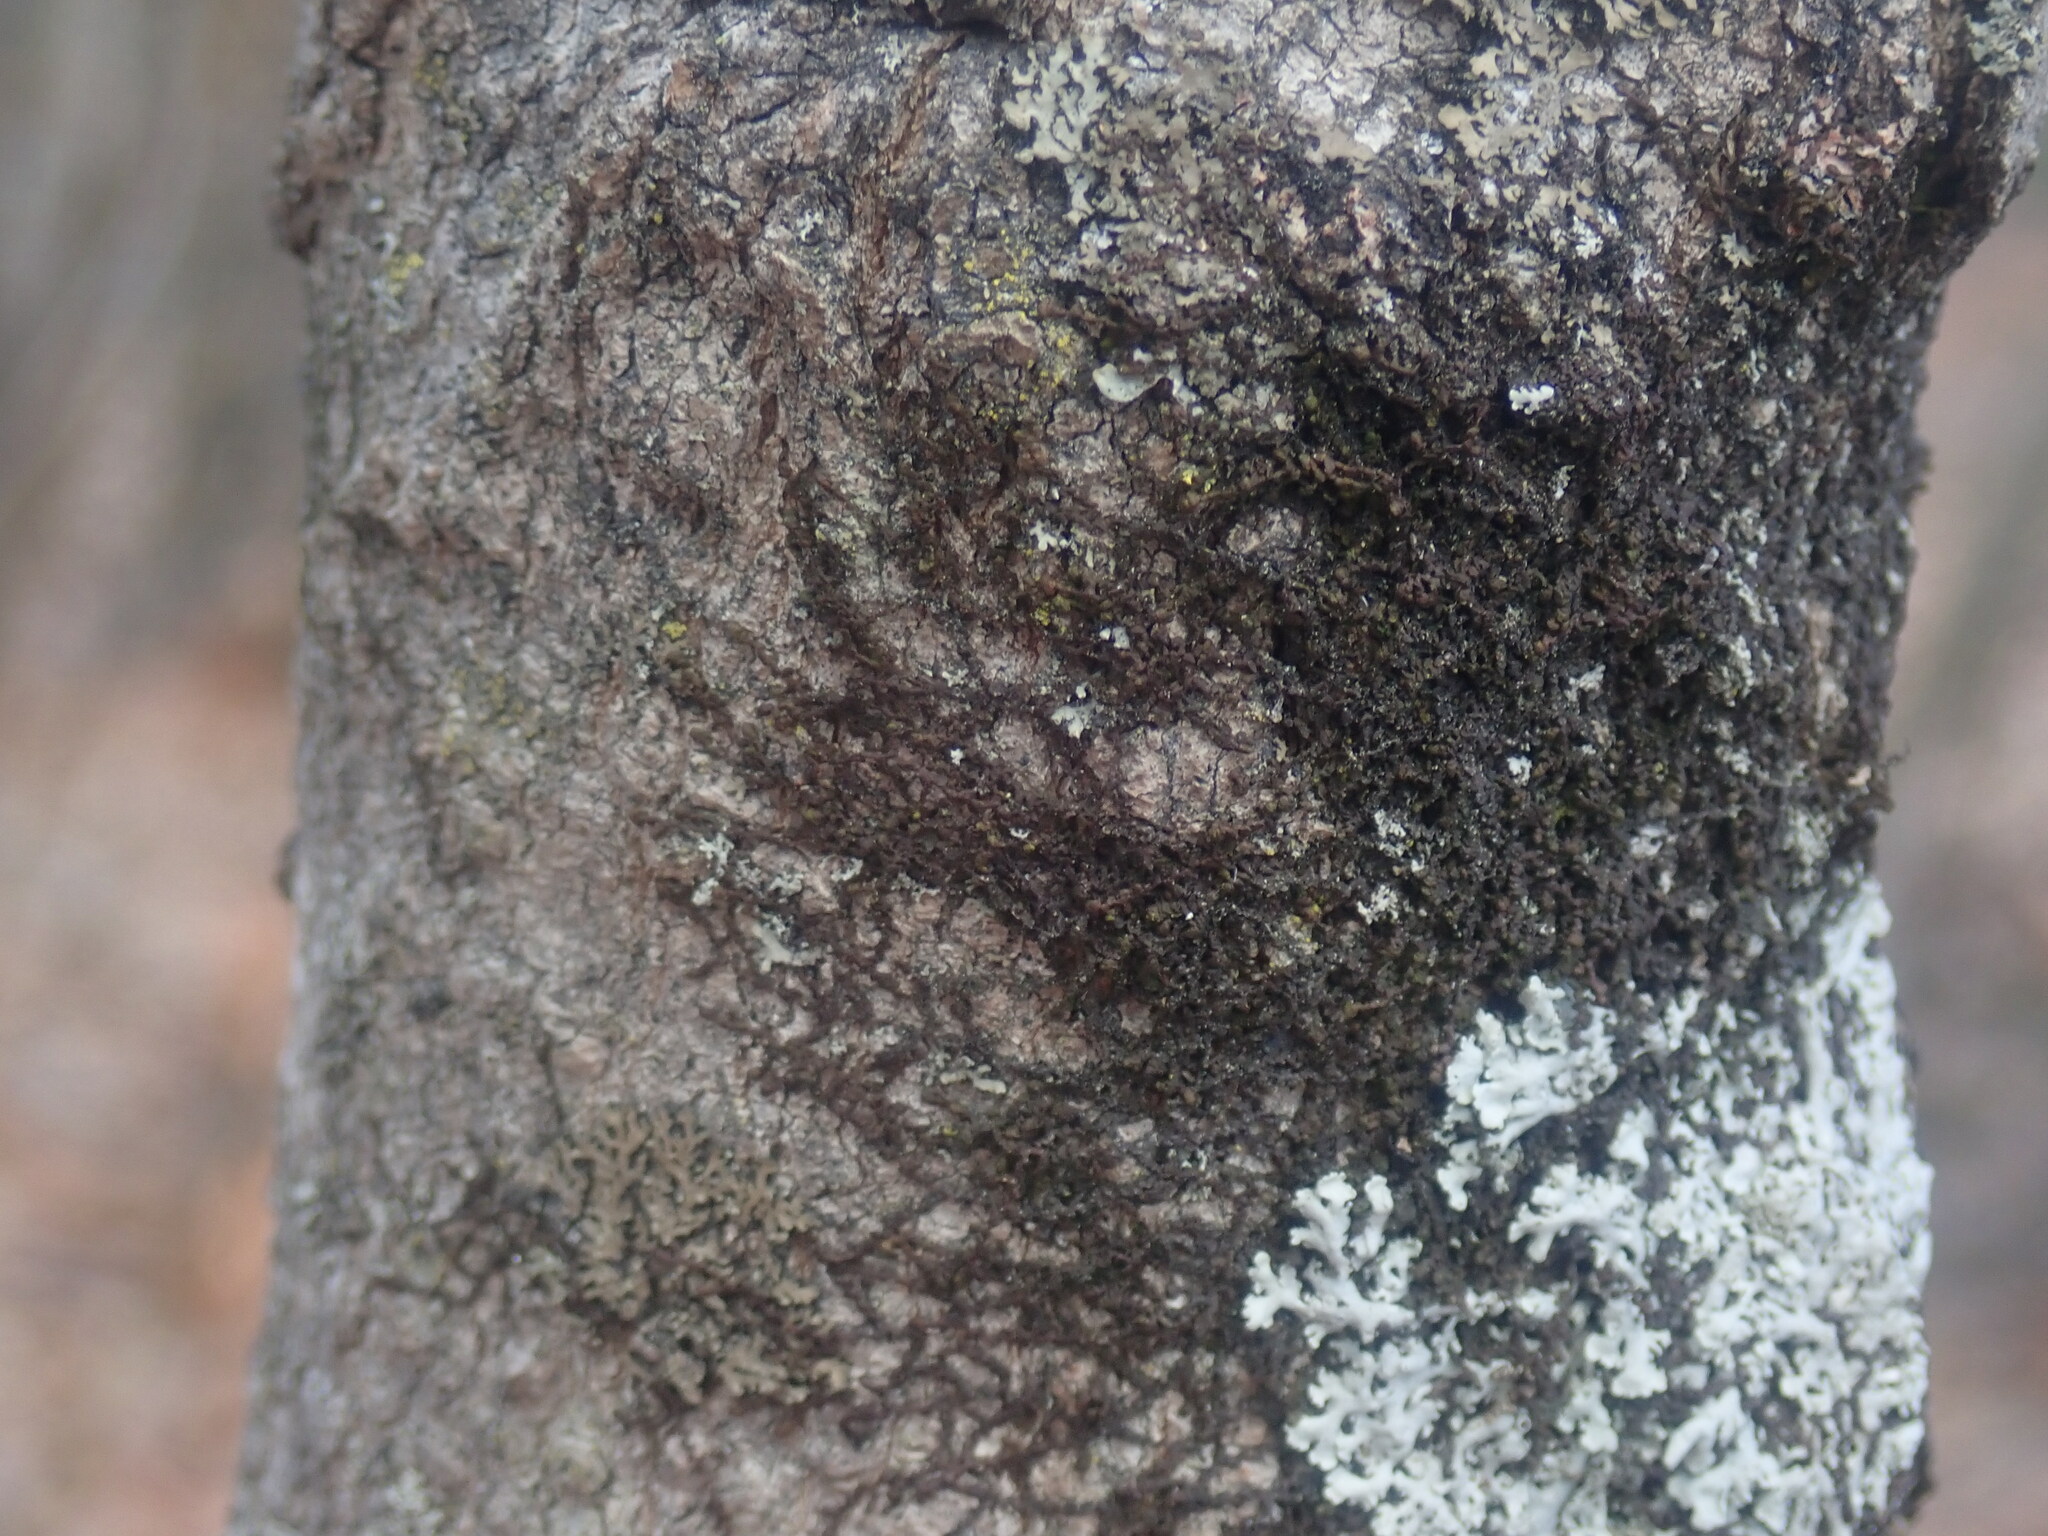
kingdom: Plantae
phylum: Marchantiophyta
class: Jungermanniopsida
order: Porellales
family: Frullaniaceae
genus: Frullania
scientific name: Frullania
